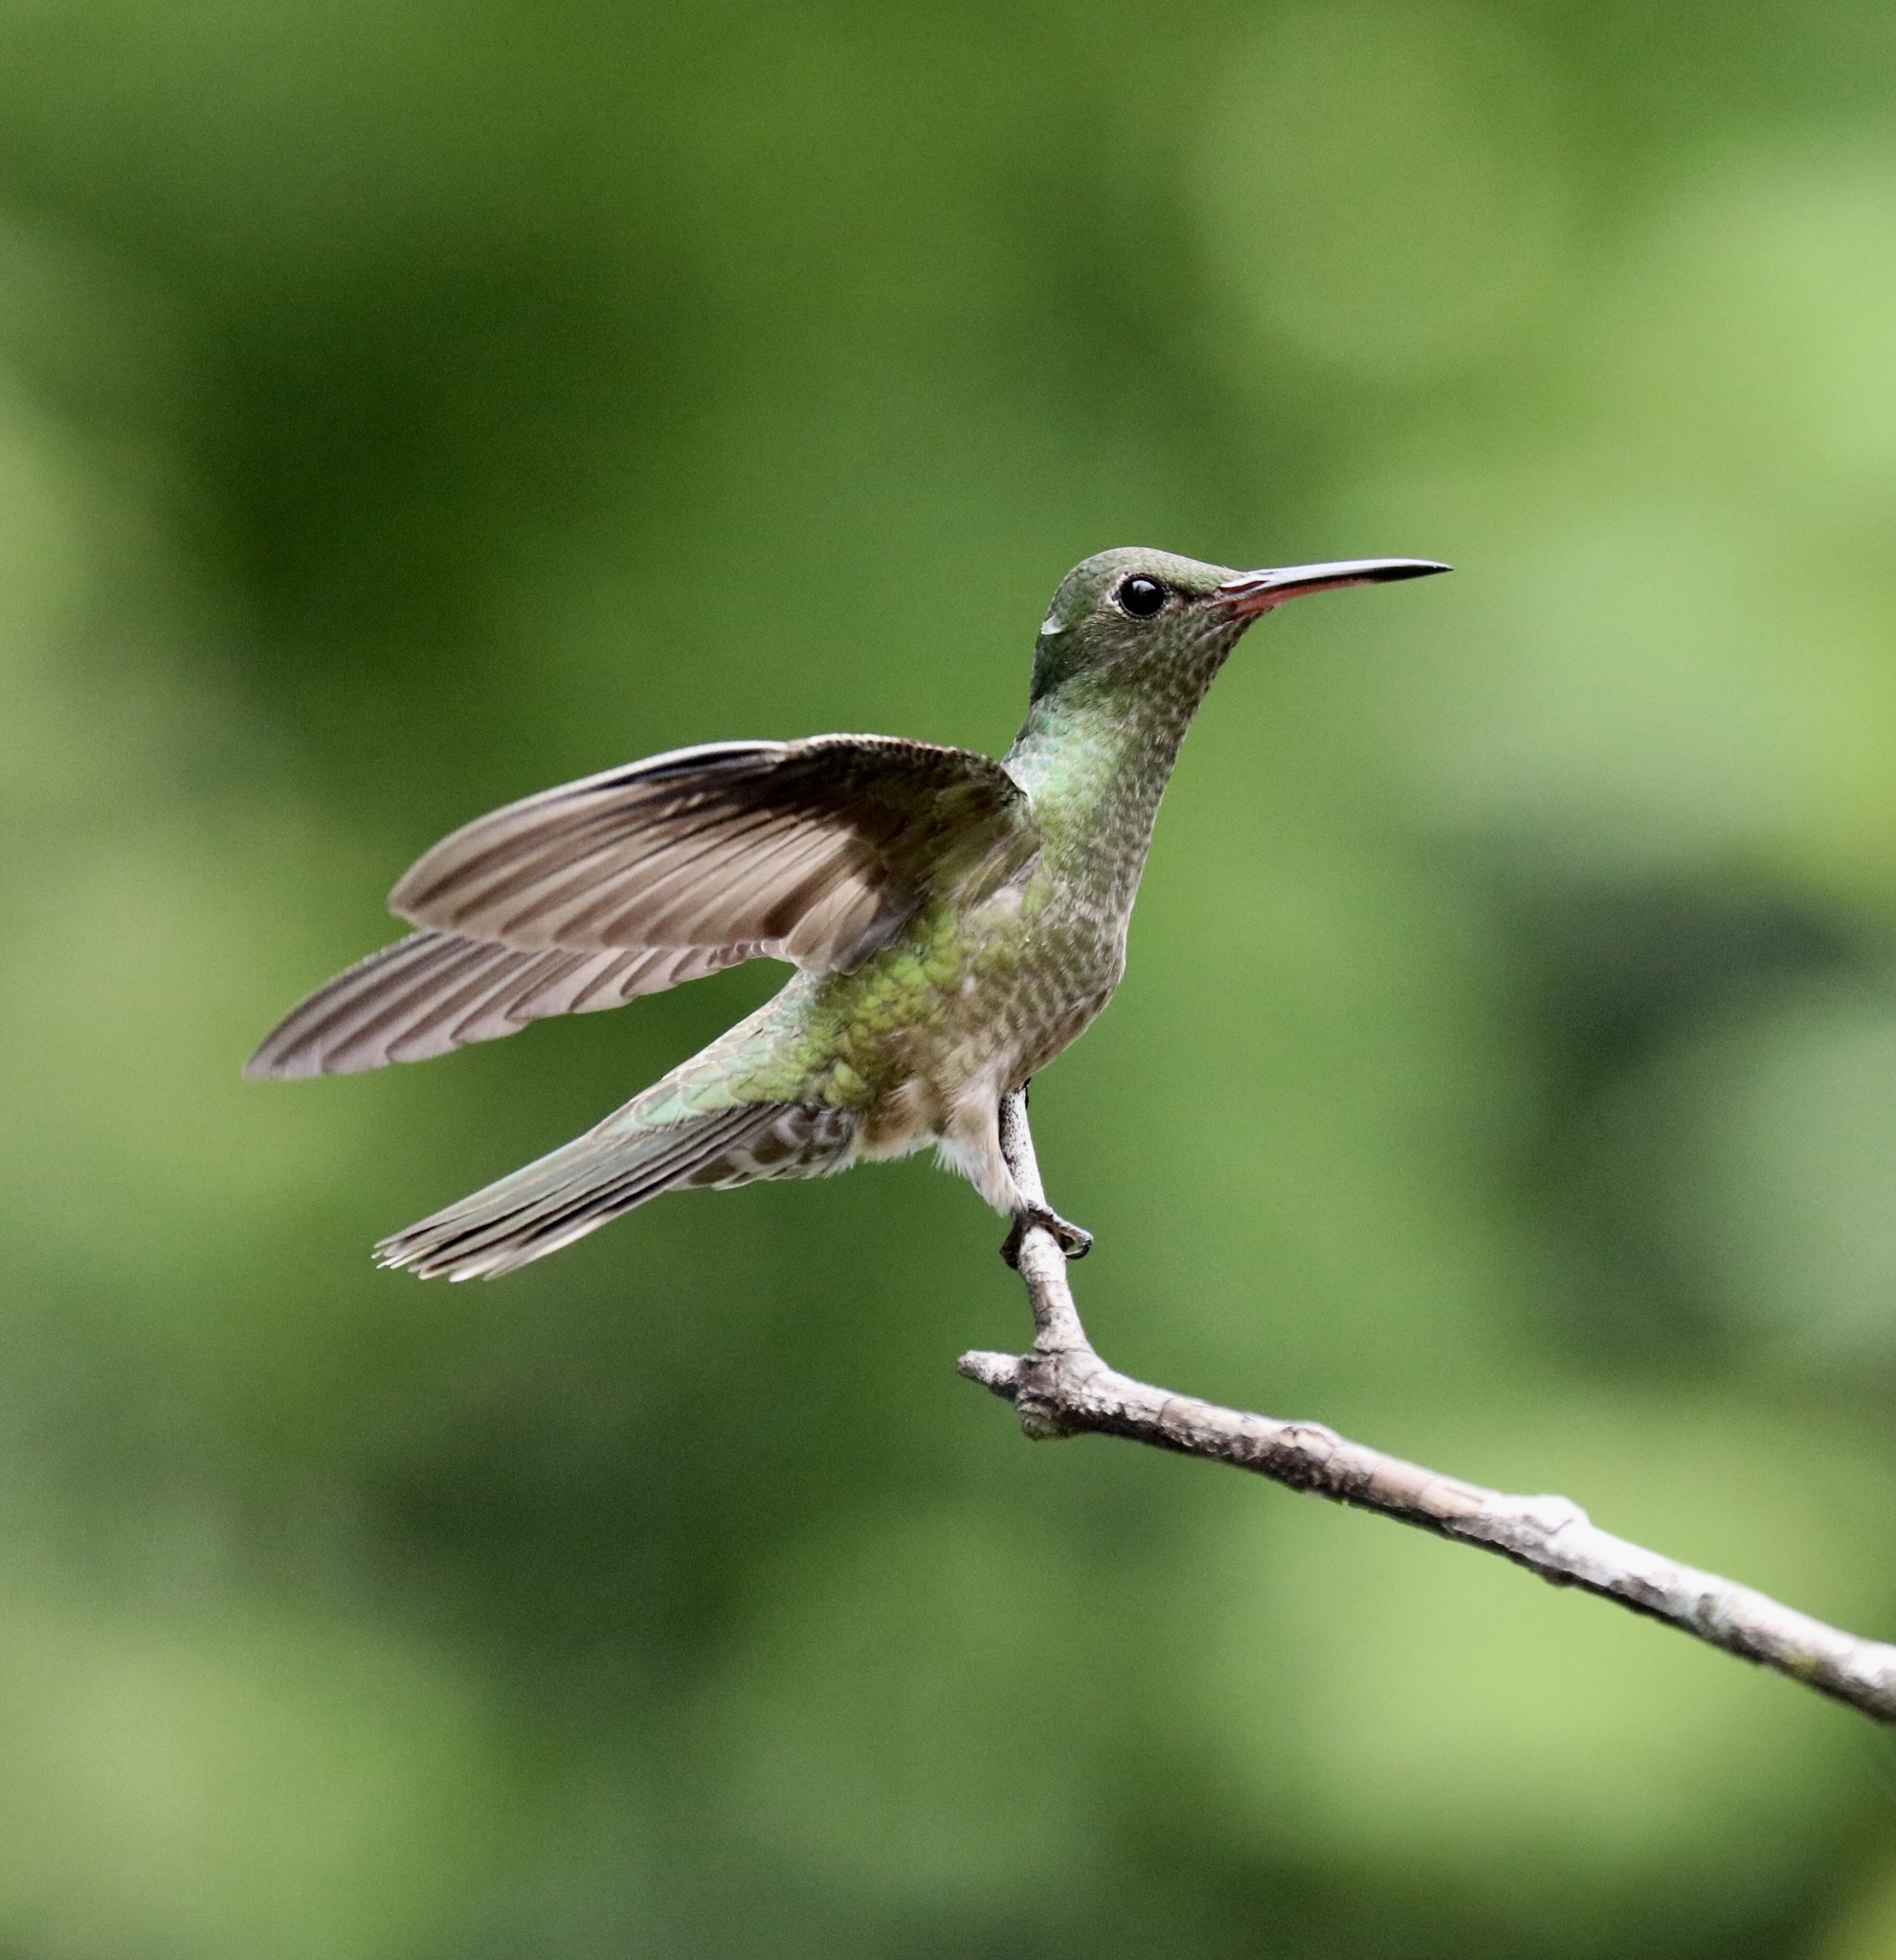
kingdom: Animalia
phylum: Chordata
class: Aves
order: Apodiformes
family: Trochilidae
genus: Phaeochroa
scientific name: Phaeochroa cuvierii
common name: Scaly-breasted hummingbird
